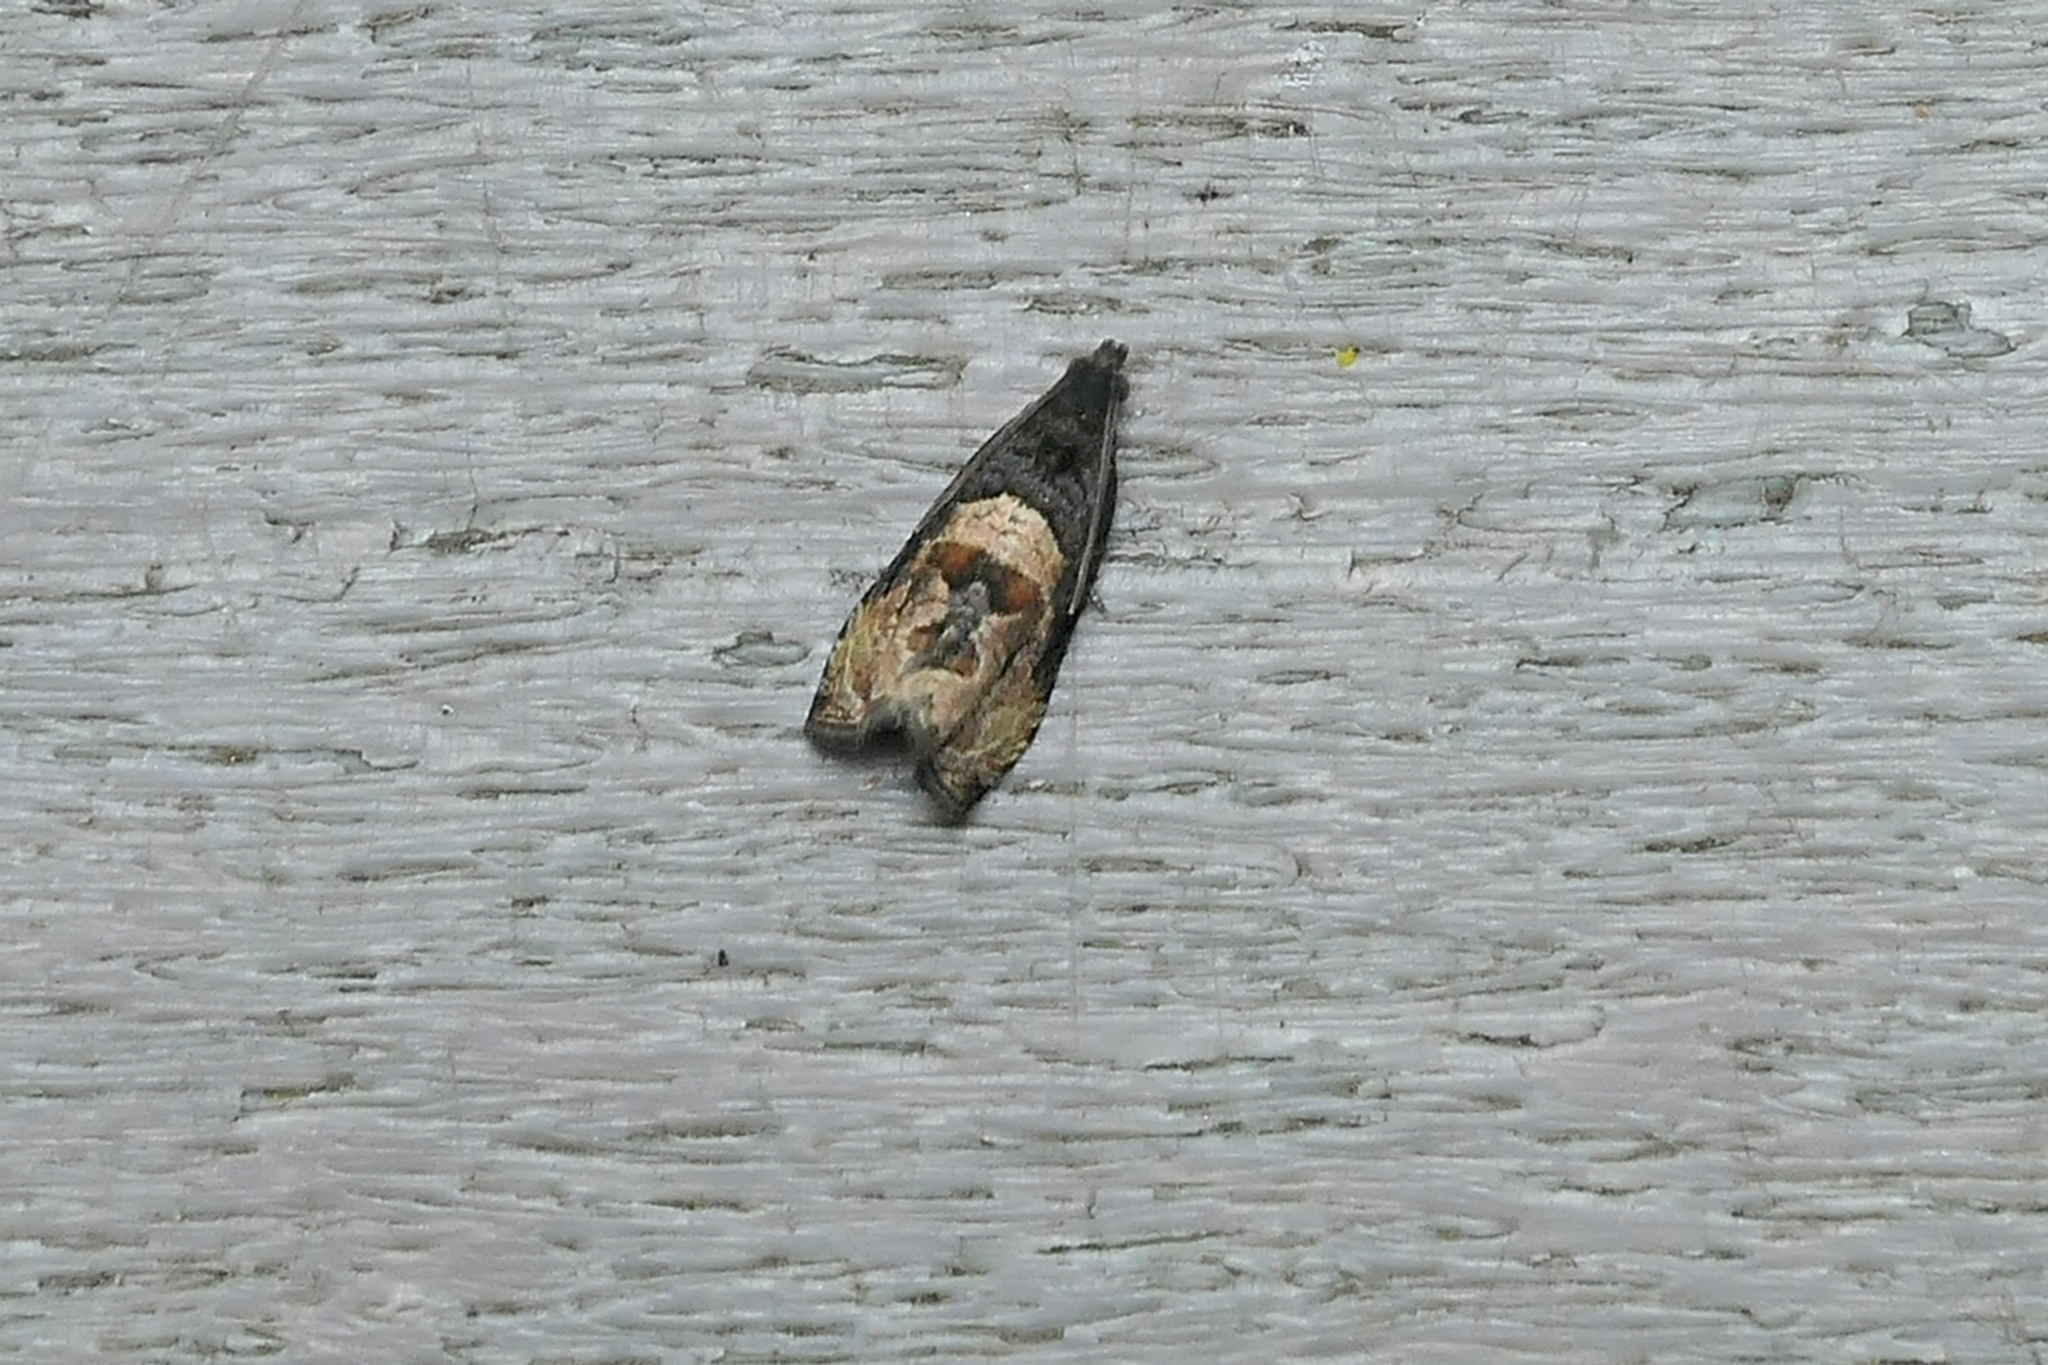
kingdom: Animalia
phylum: Arthropoda
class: Insecta
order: Lepidoptera
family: Tortricidae
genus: Hulda
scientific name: Hulda impudens
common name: Impudent hulda moth
